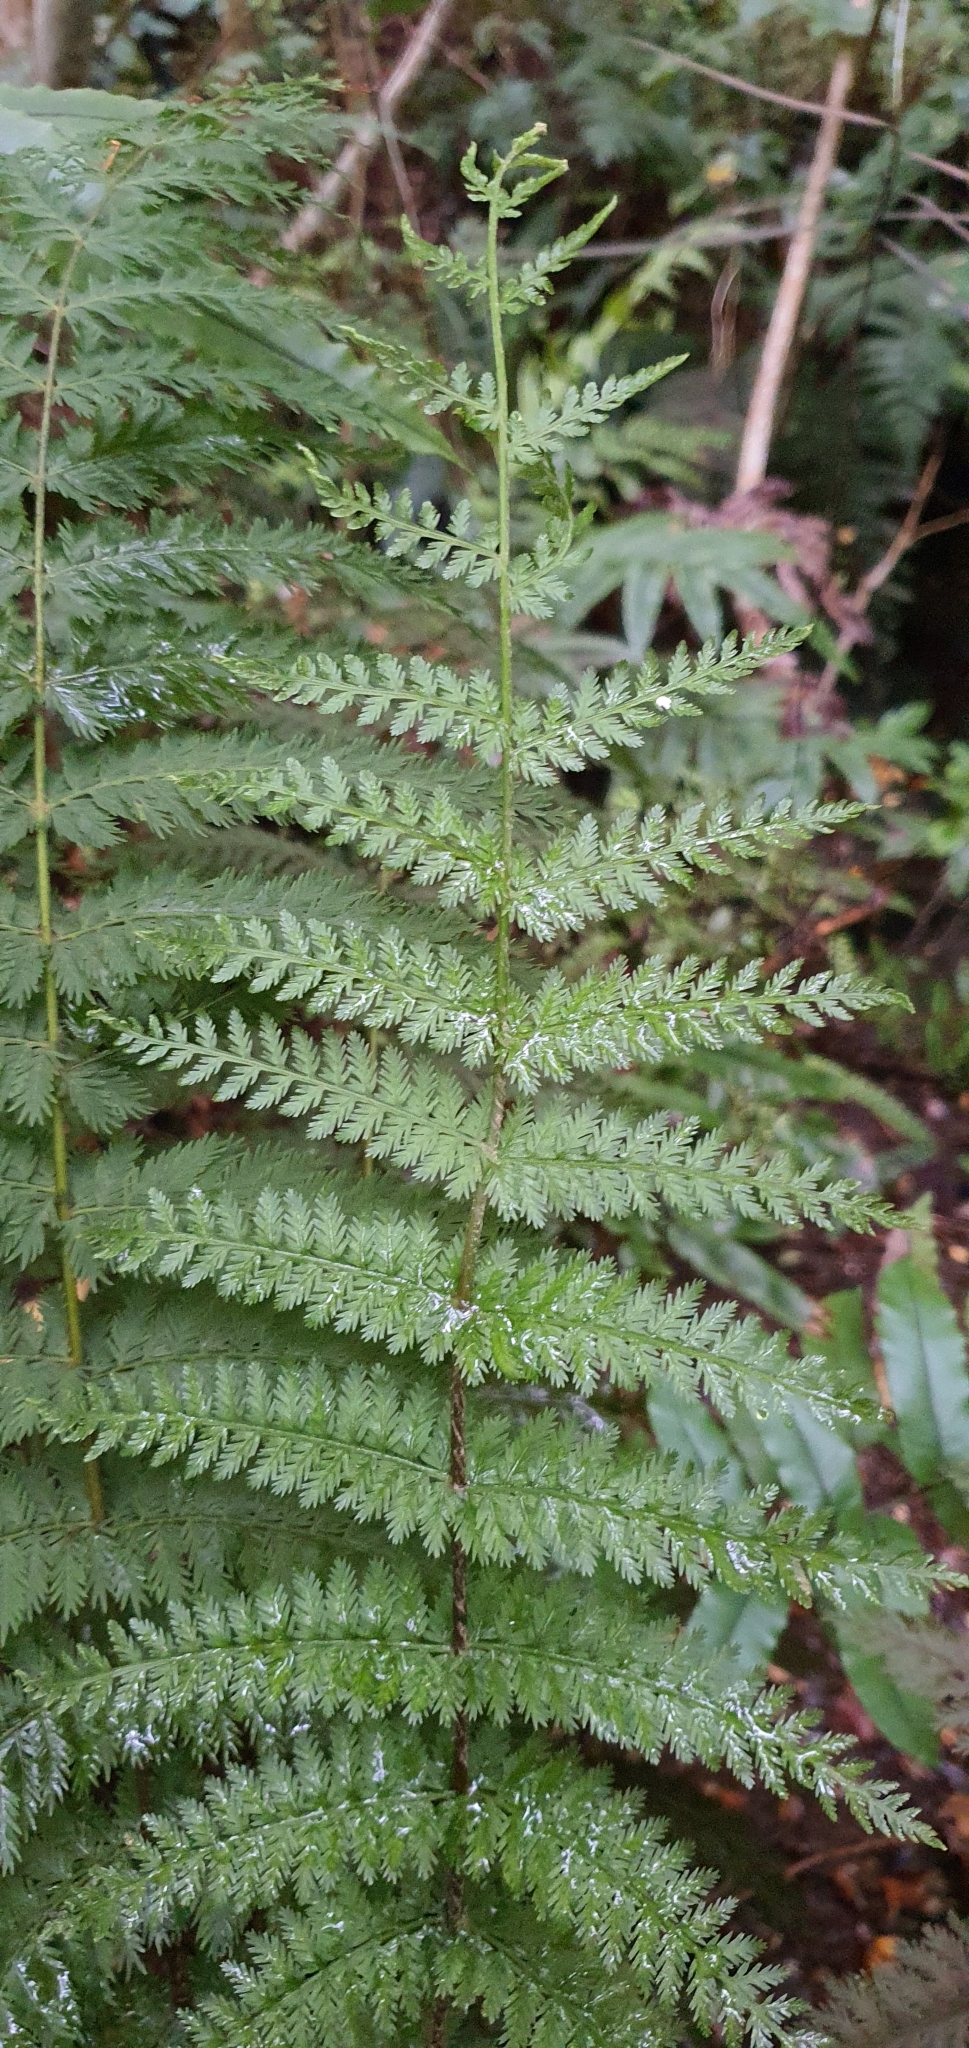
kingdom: Plantae
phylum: Tracheophyta
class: Polypodiopsida
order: Osmundales
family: Osmundaceae
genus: Leptopteris
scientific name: Leptopteris hymenophylloides
